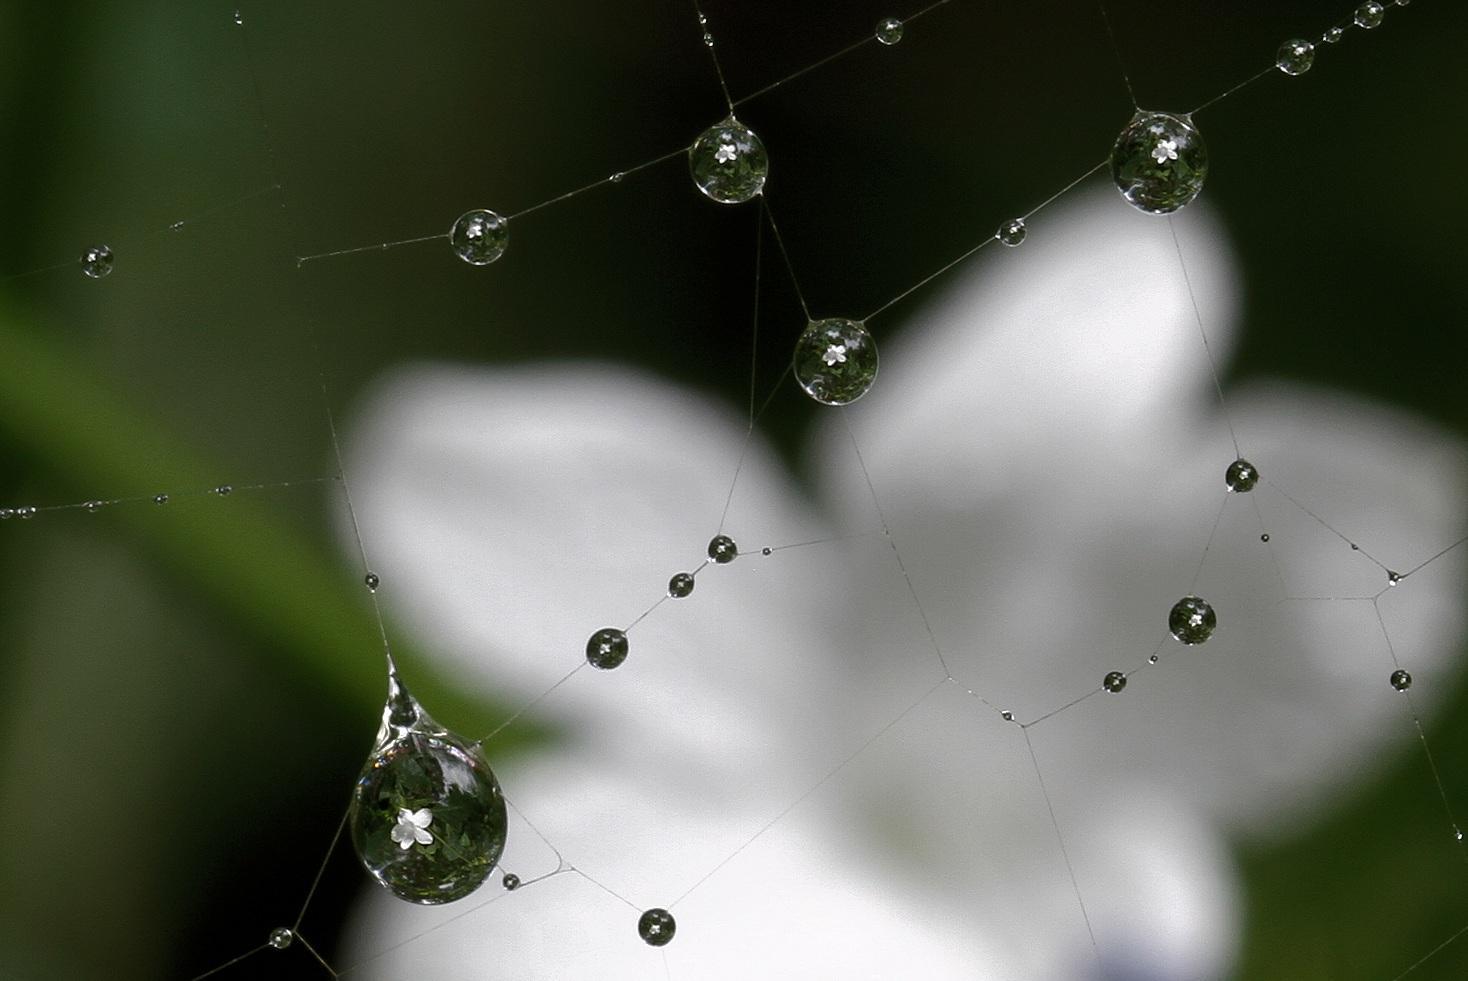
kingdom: Plantae
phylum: Tracheophyta
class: Magnoliopsida
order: Lamiales
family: Acanthaceae
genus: Barleria
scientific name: Barleria elegans
